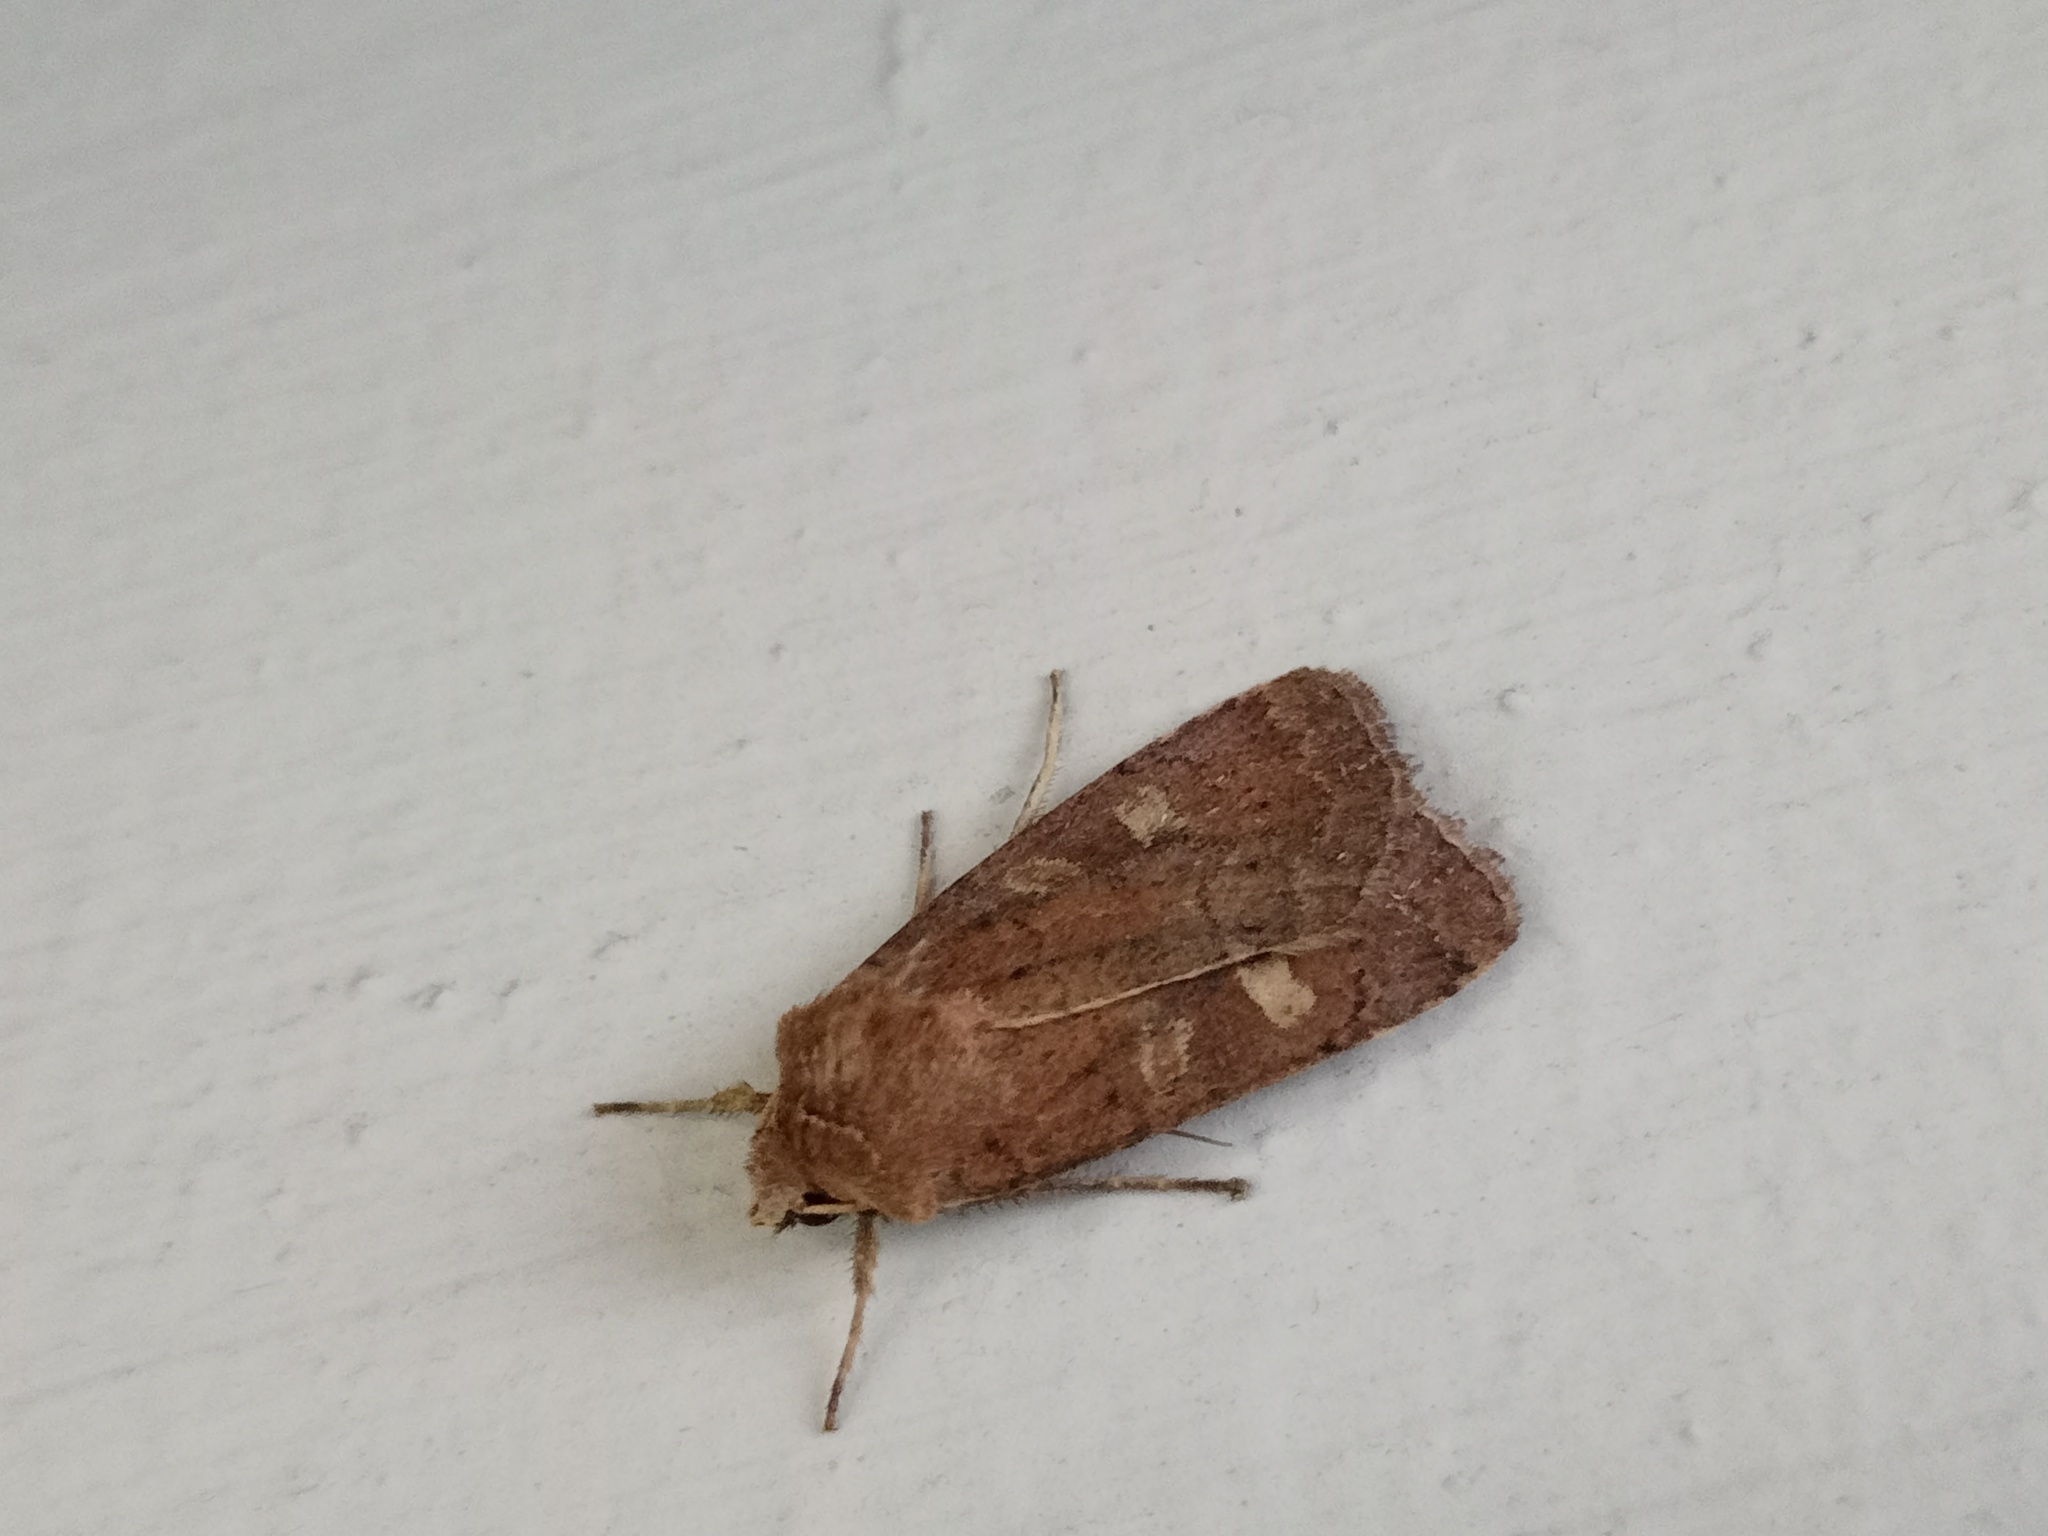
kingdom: Animalia
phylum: Arthropoda
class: Insecta
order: Lepidoptera
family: Noctuidae
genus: Xestia
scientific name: Xestia xanthographa
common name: Square-spot rustic
